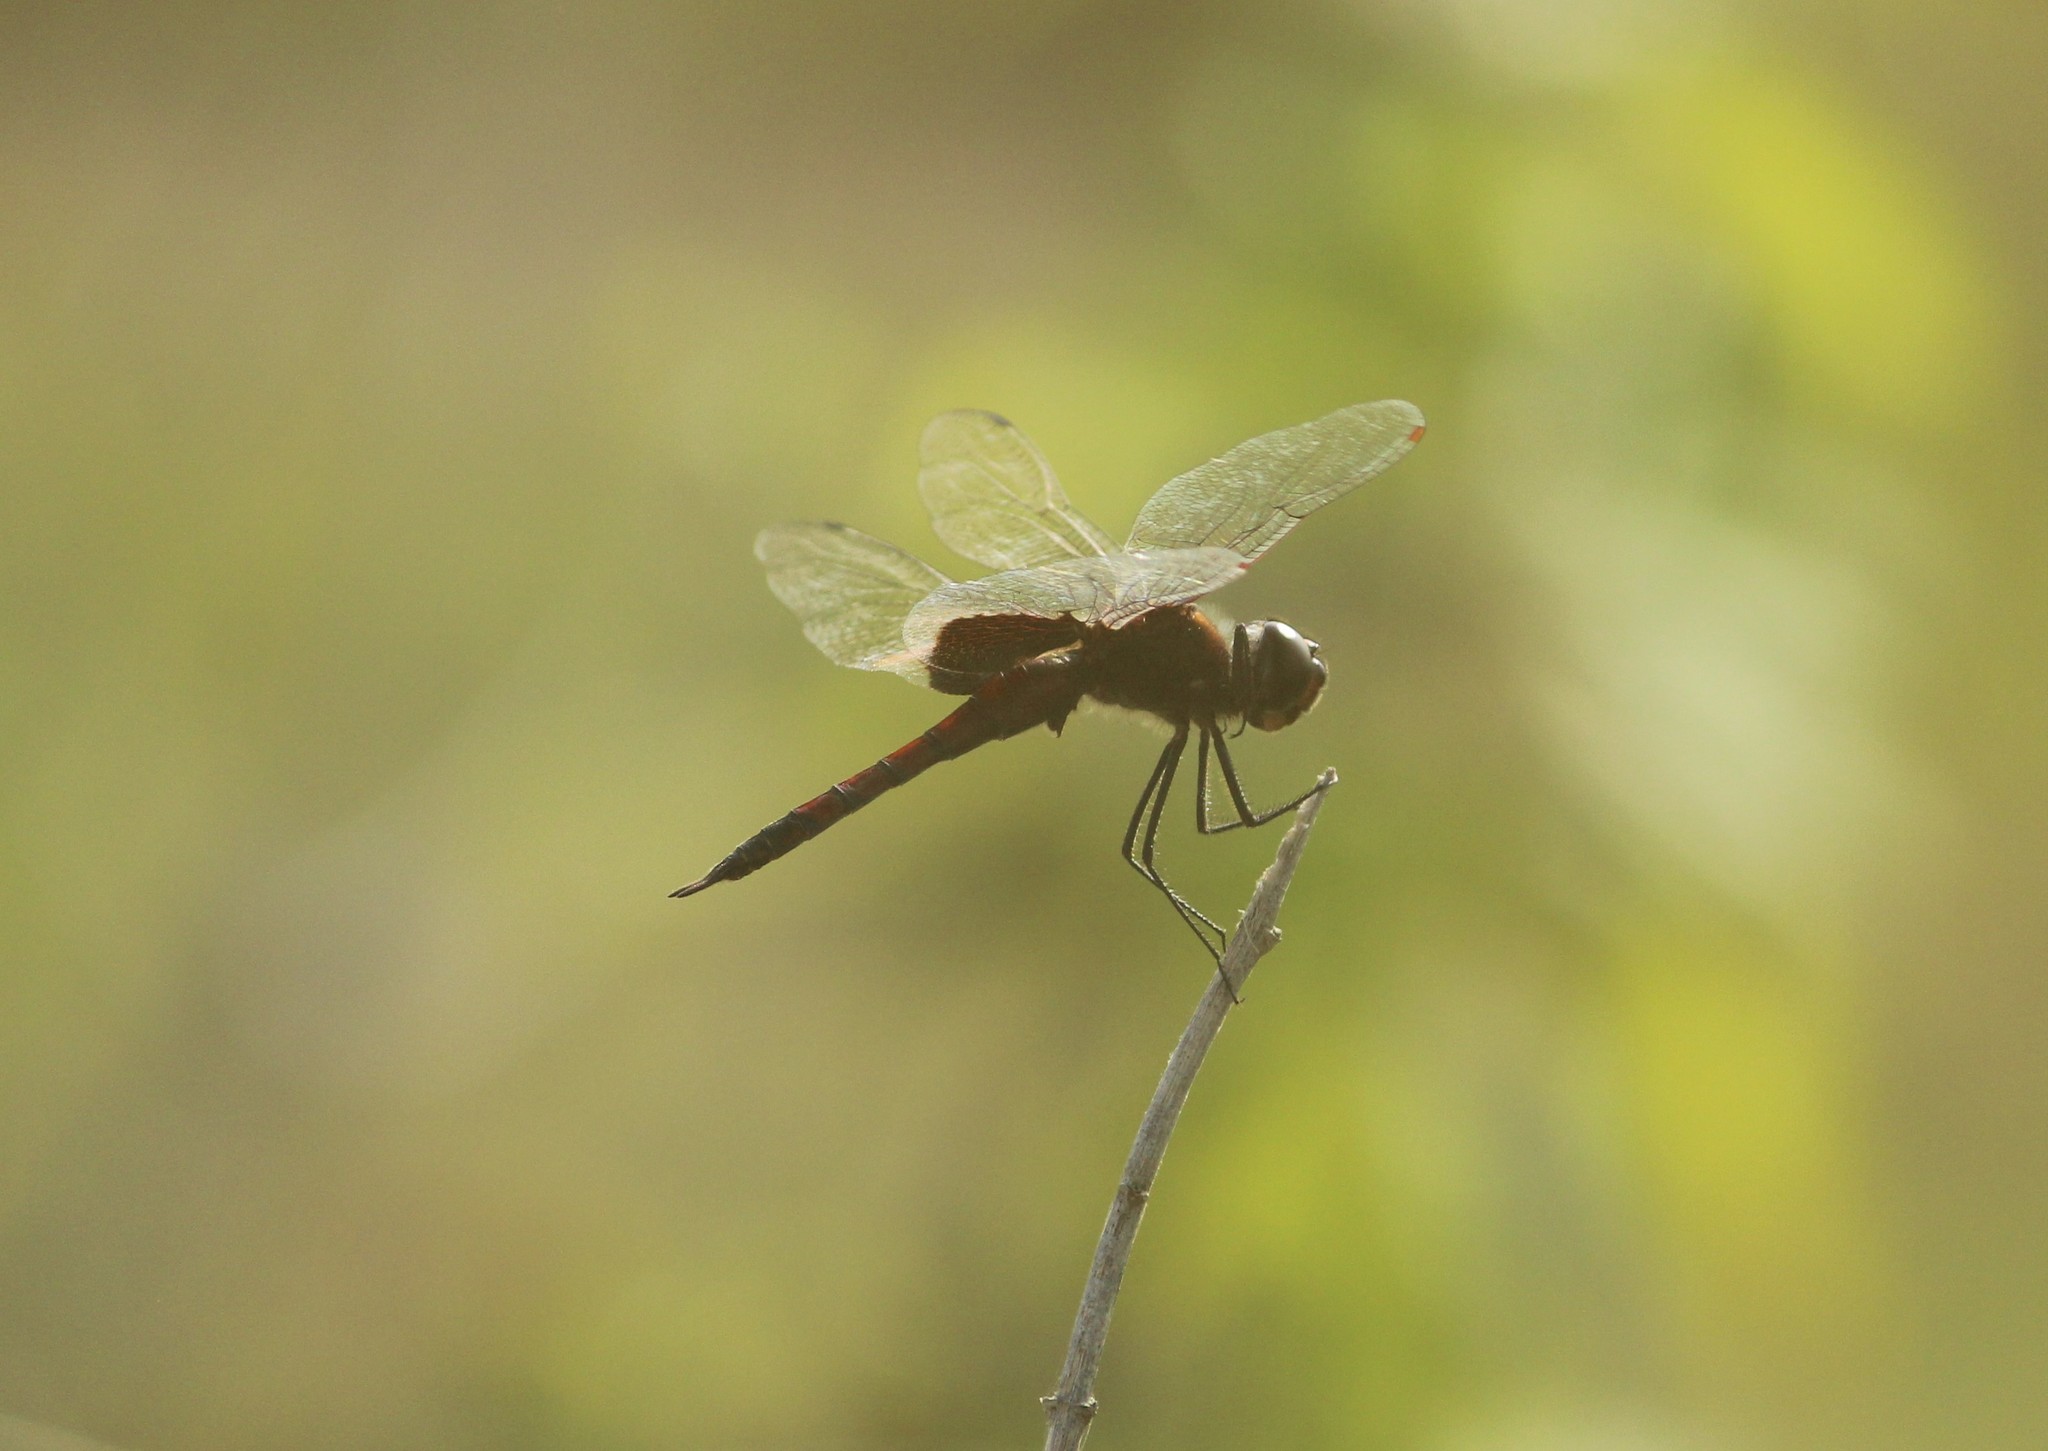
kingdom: Animalia
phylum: Arthropoda
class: Insecta
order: Odonata
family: Libellulidae
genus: Tramea
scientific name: Tramea limbata
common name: Ferruginous glider
